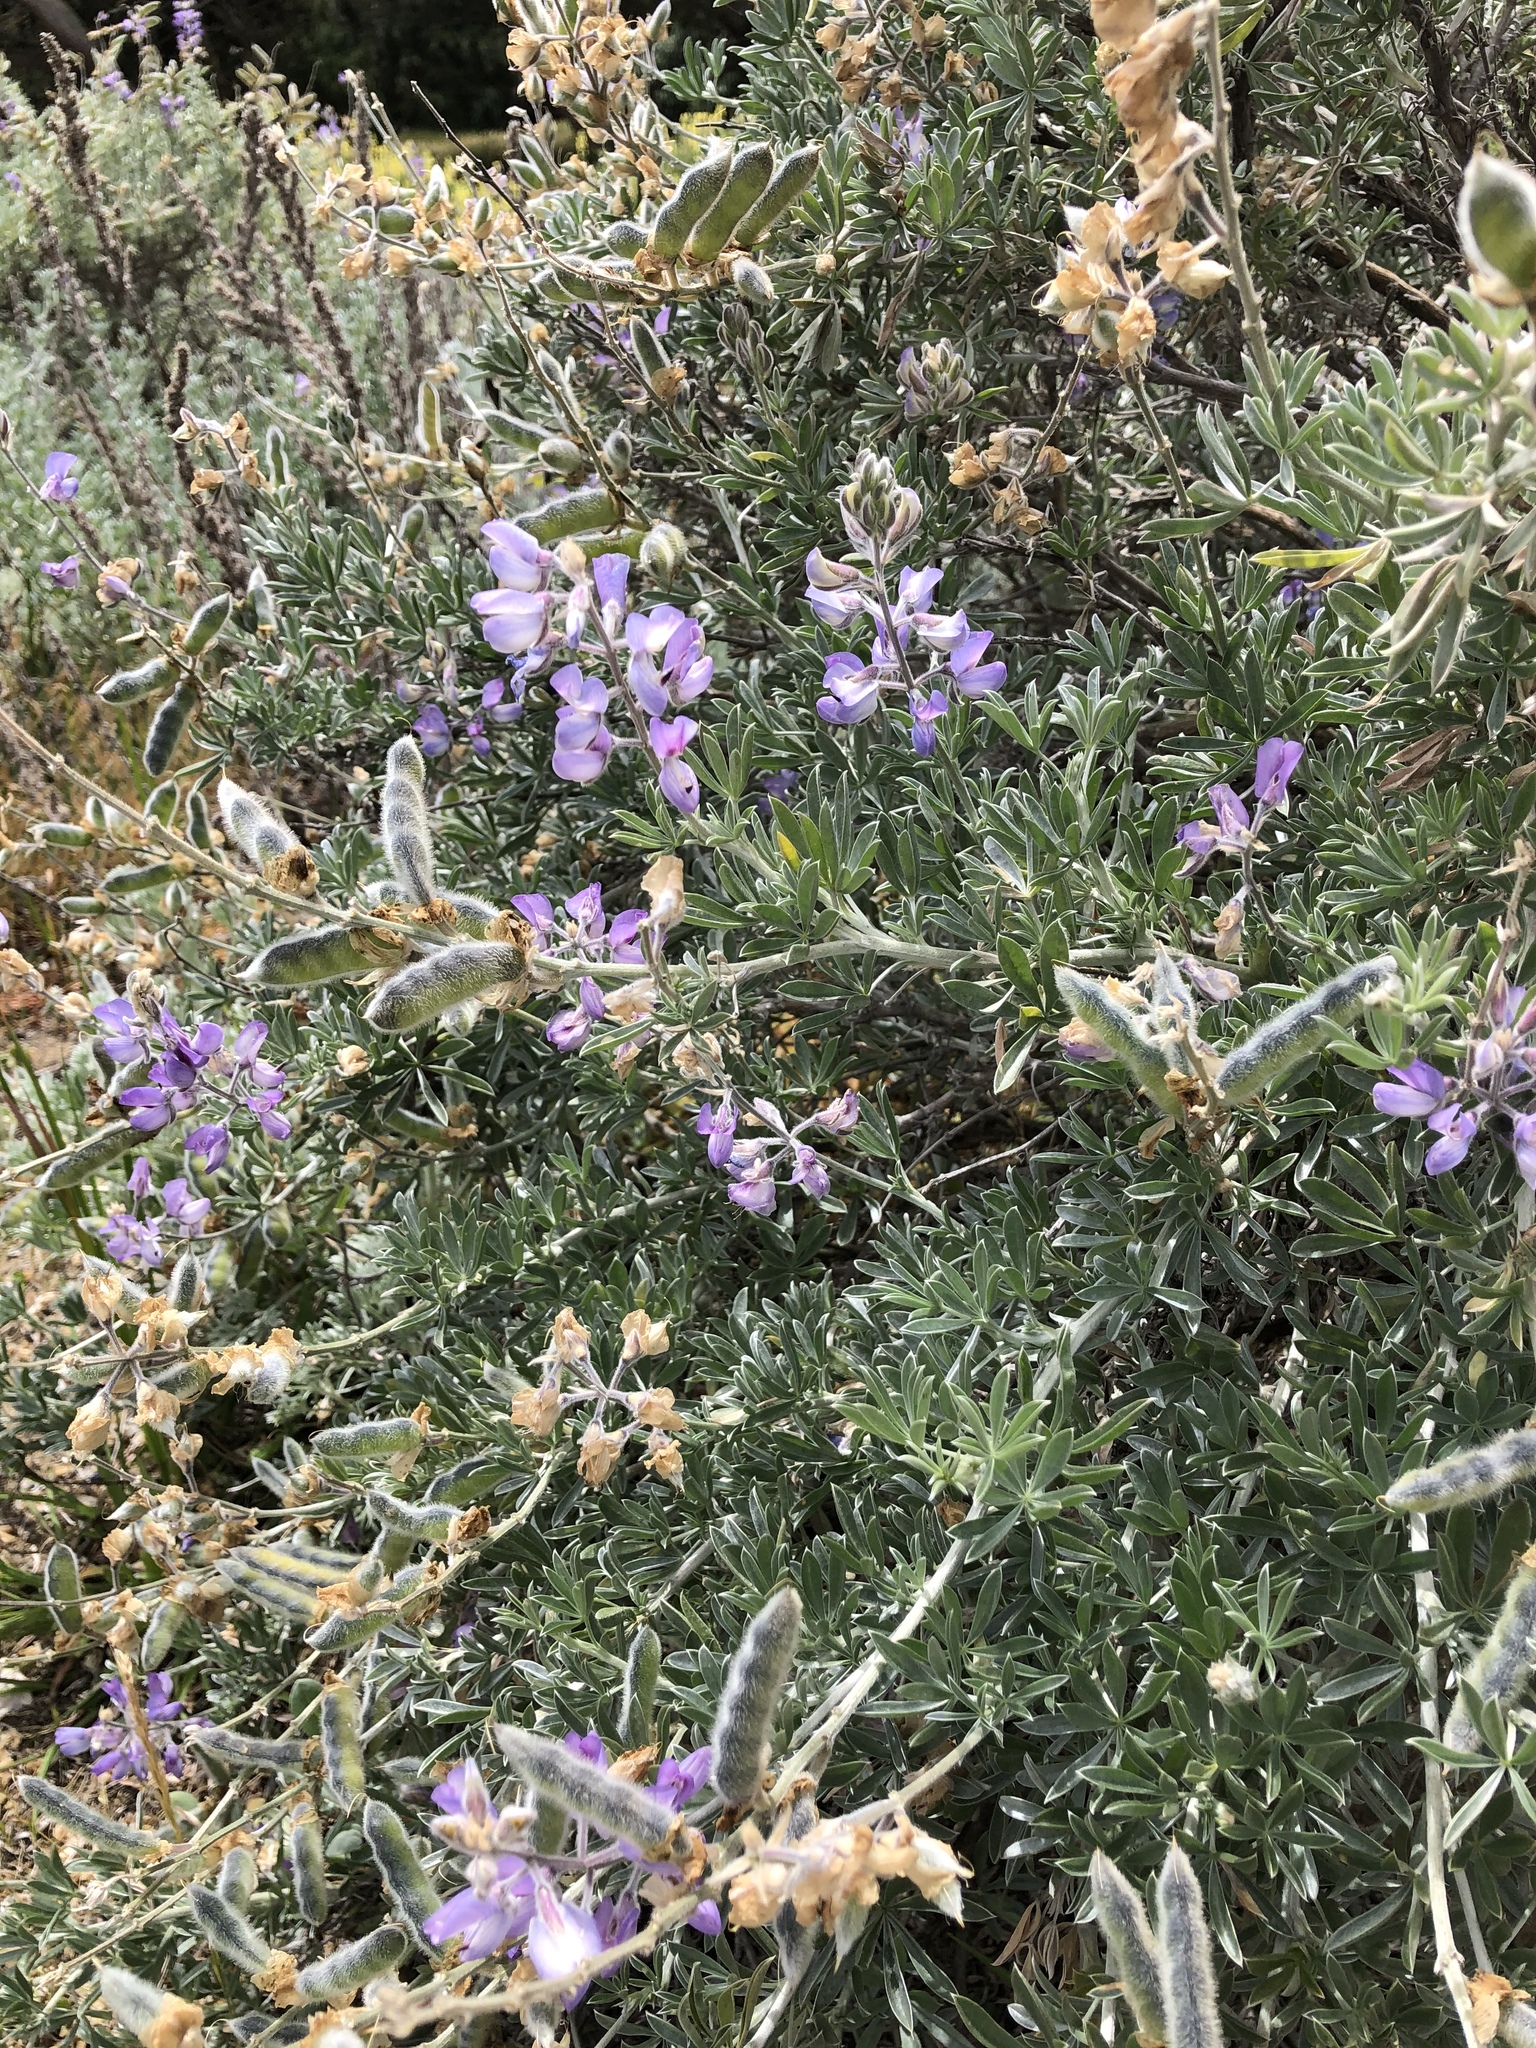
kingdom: Plantae
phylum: Tracheophyta
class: Magnoliopsida
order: Fabales
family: Fabaceae
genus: Lupinus
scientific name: Lupinus chamissonis
